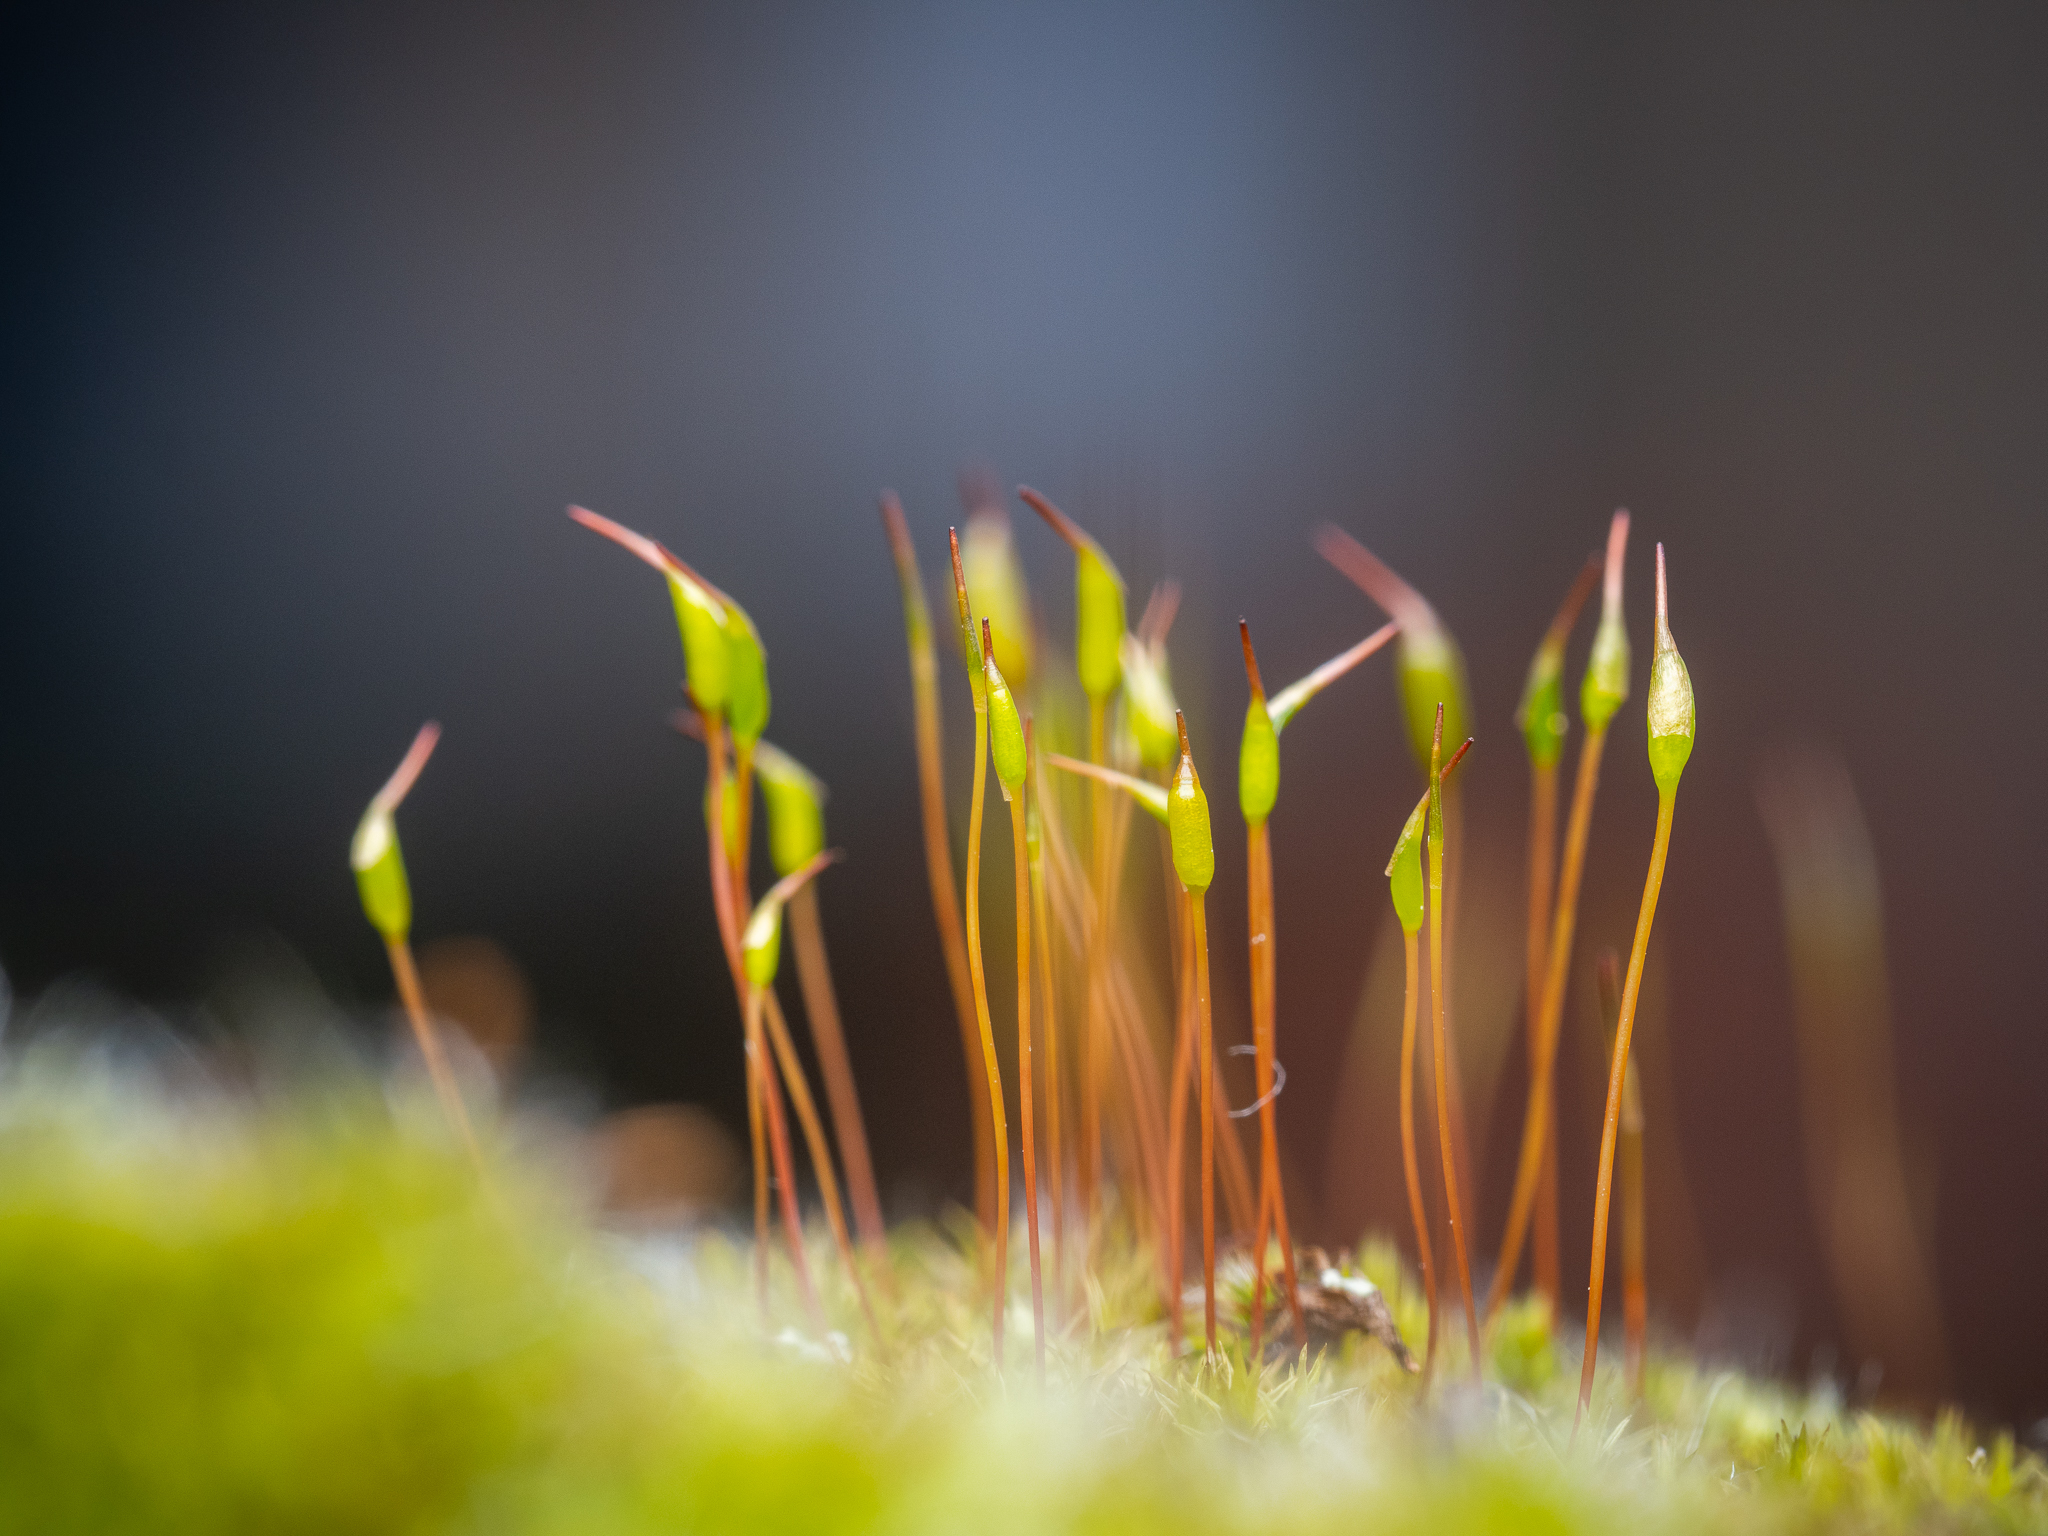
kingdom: Plantae
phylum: Bryophyta
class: Bryopsida
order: Dicranales
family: Ditrichaceae
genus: Ceratodon
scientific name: Ceratodon purpureus
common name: Redshank
